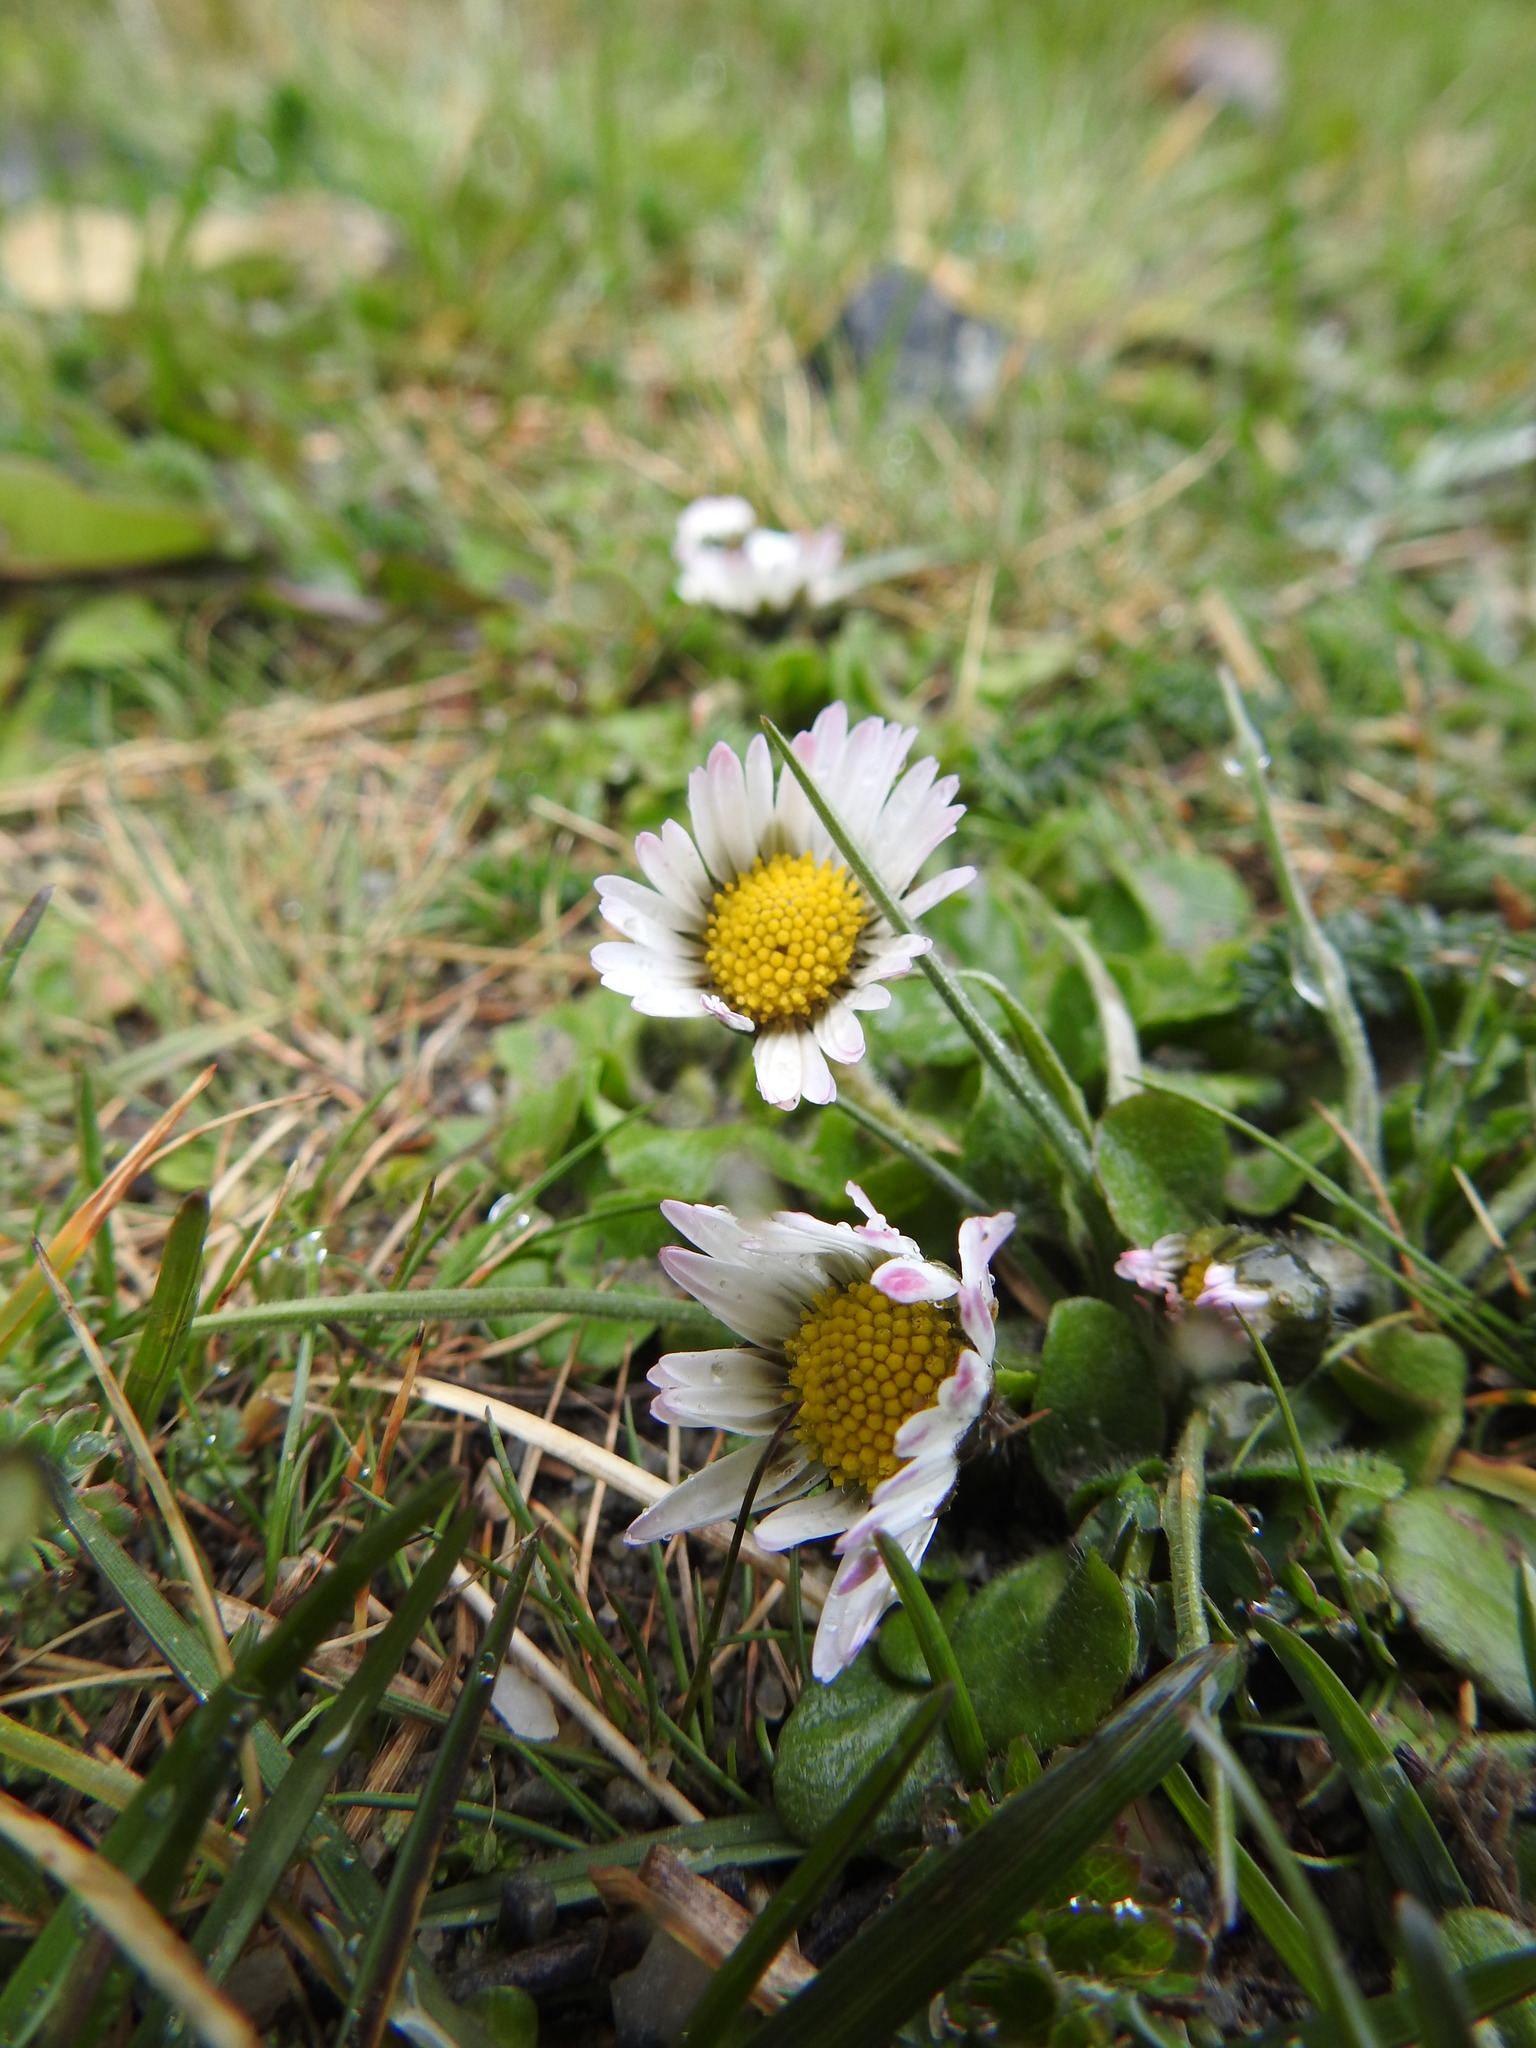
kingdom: Plantae
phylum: Tracheophyta
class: Magnoliopsida
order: Asterales
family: Asteraceae
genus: Bellis
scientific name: Bellis perennis
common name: Lawndaisy
